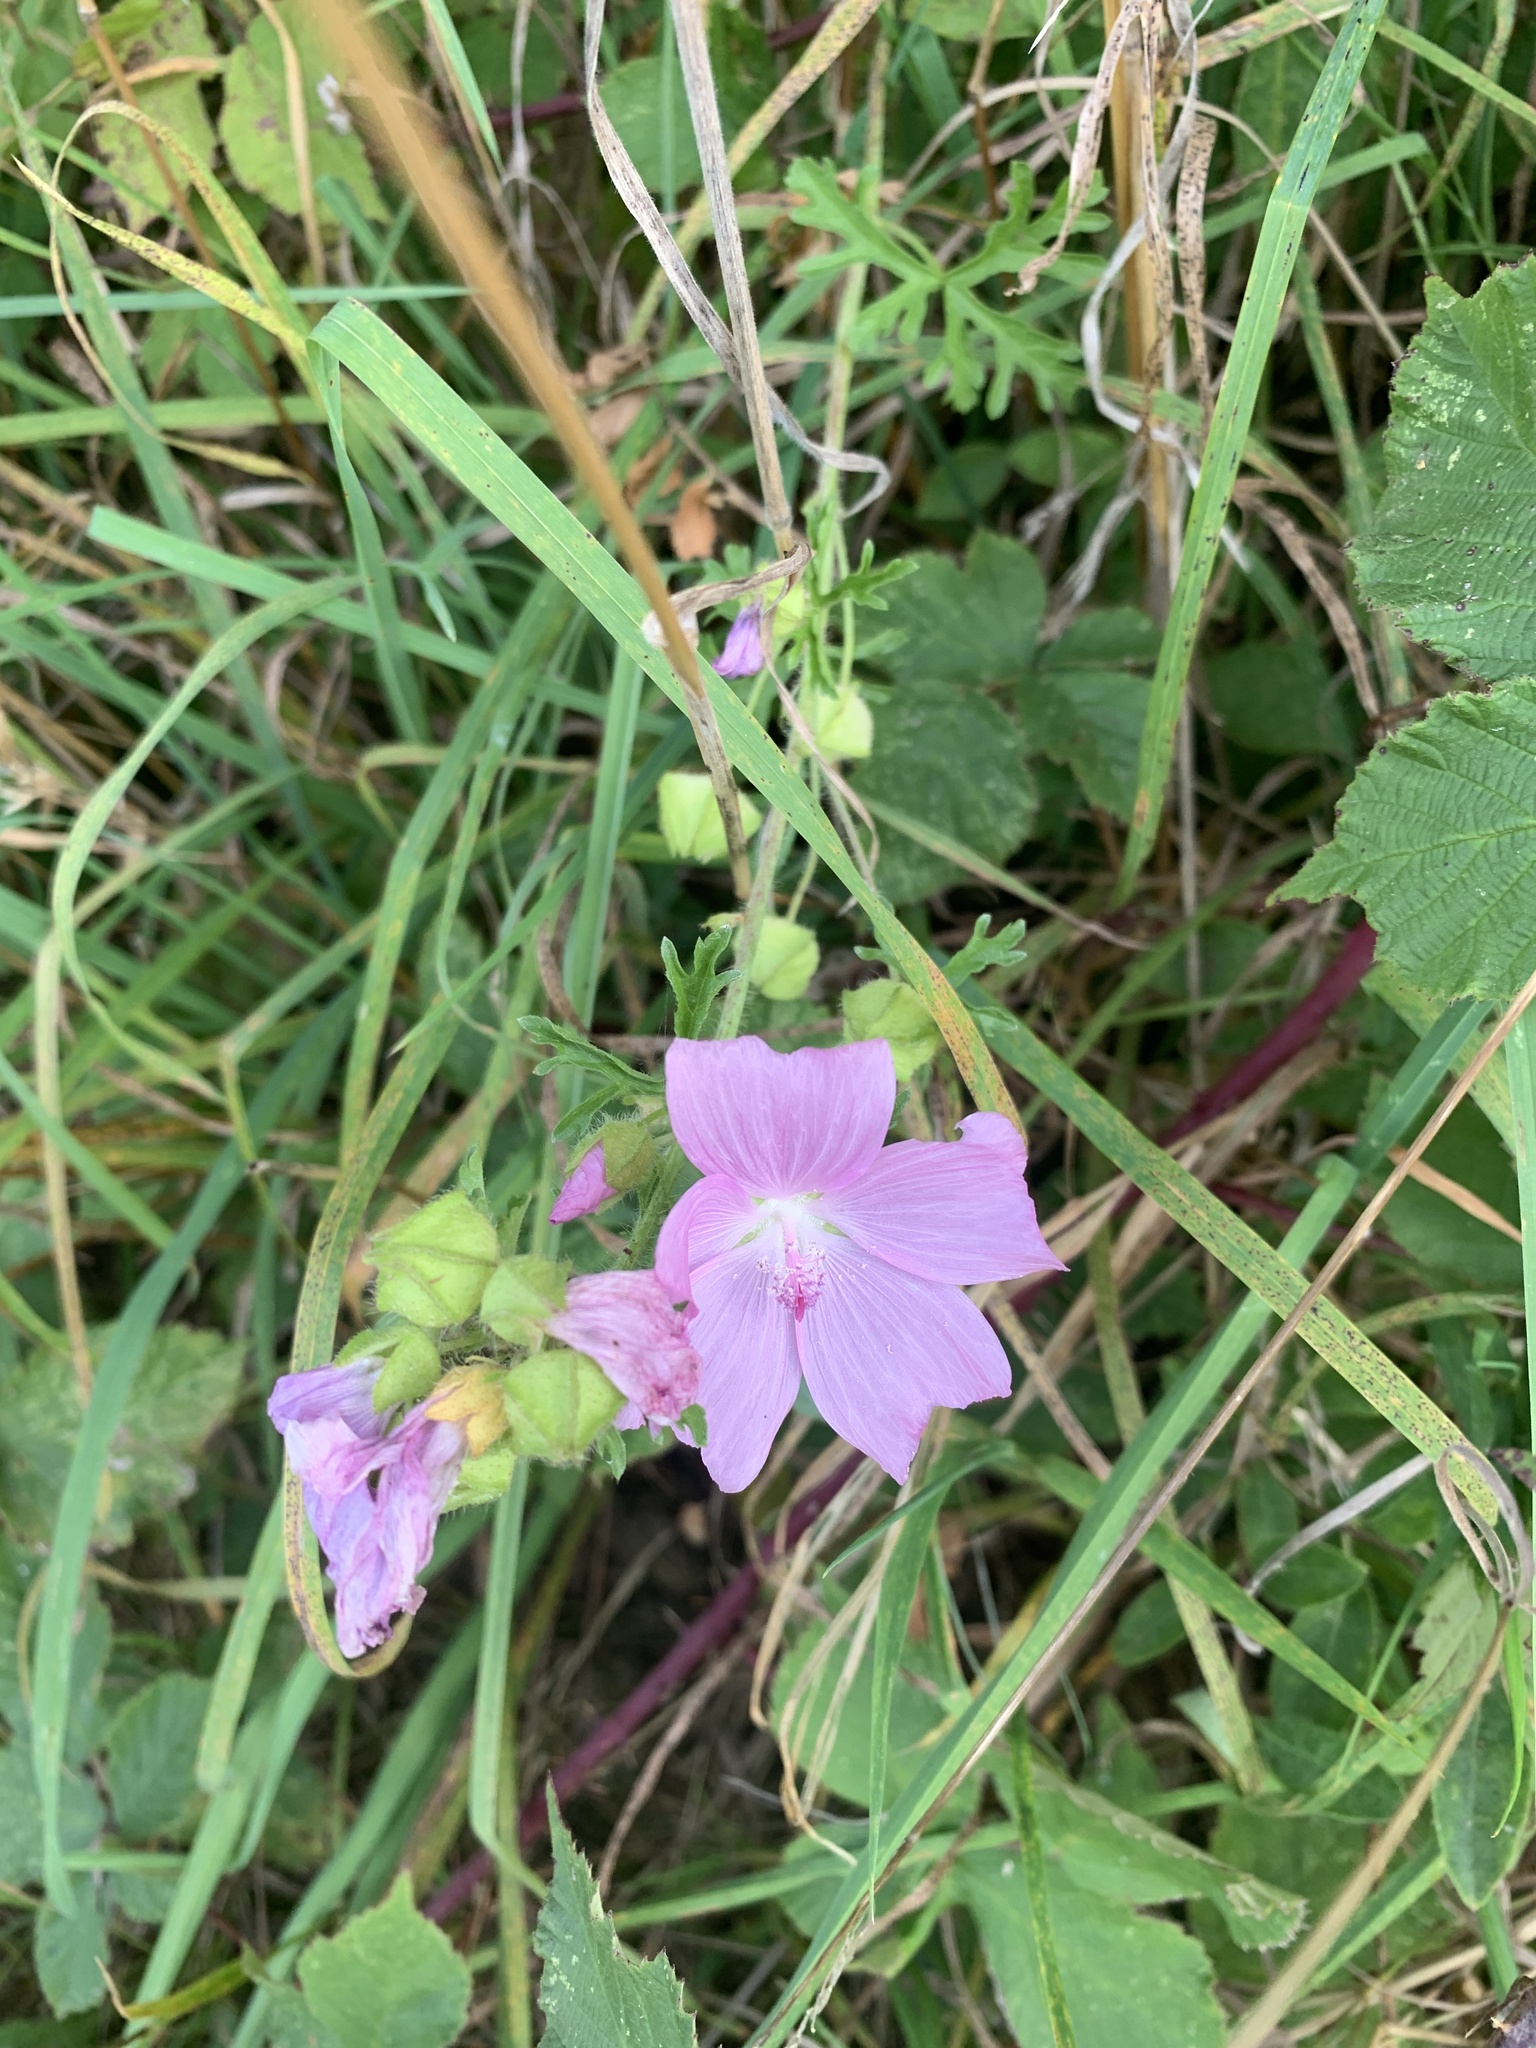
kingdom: Plantae
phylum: Tracheophyta
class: Magnoliopsida
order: Malvales
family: Malvaceae
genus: Malva
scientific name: Malva moschata
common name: Musk mallow
